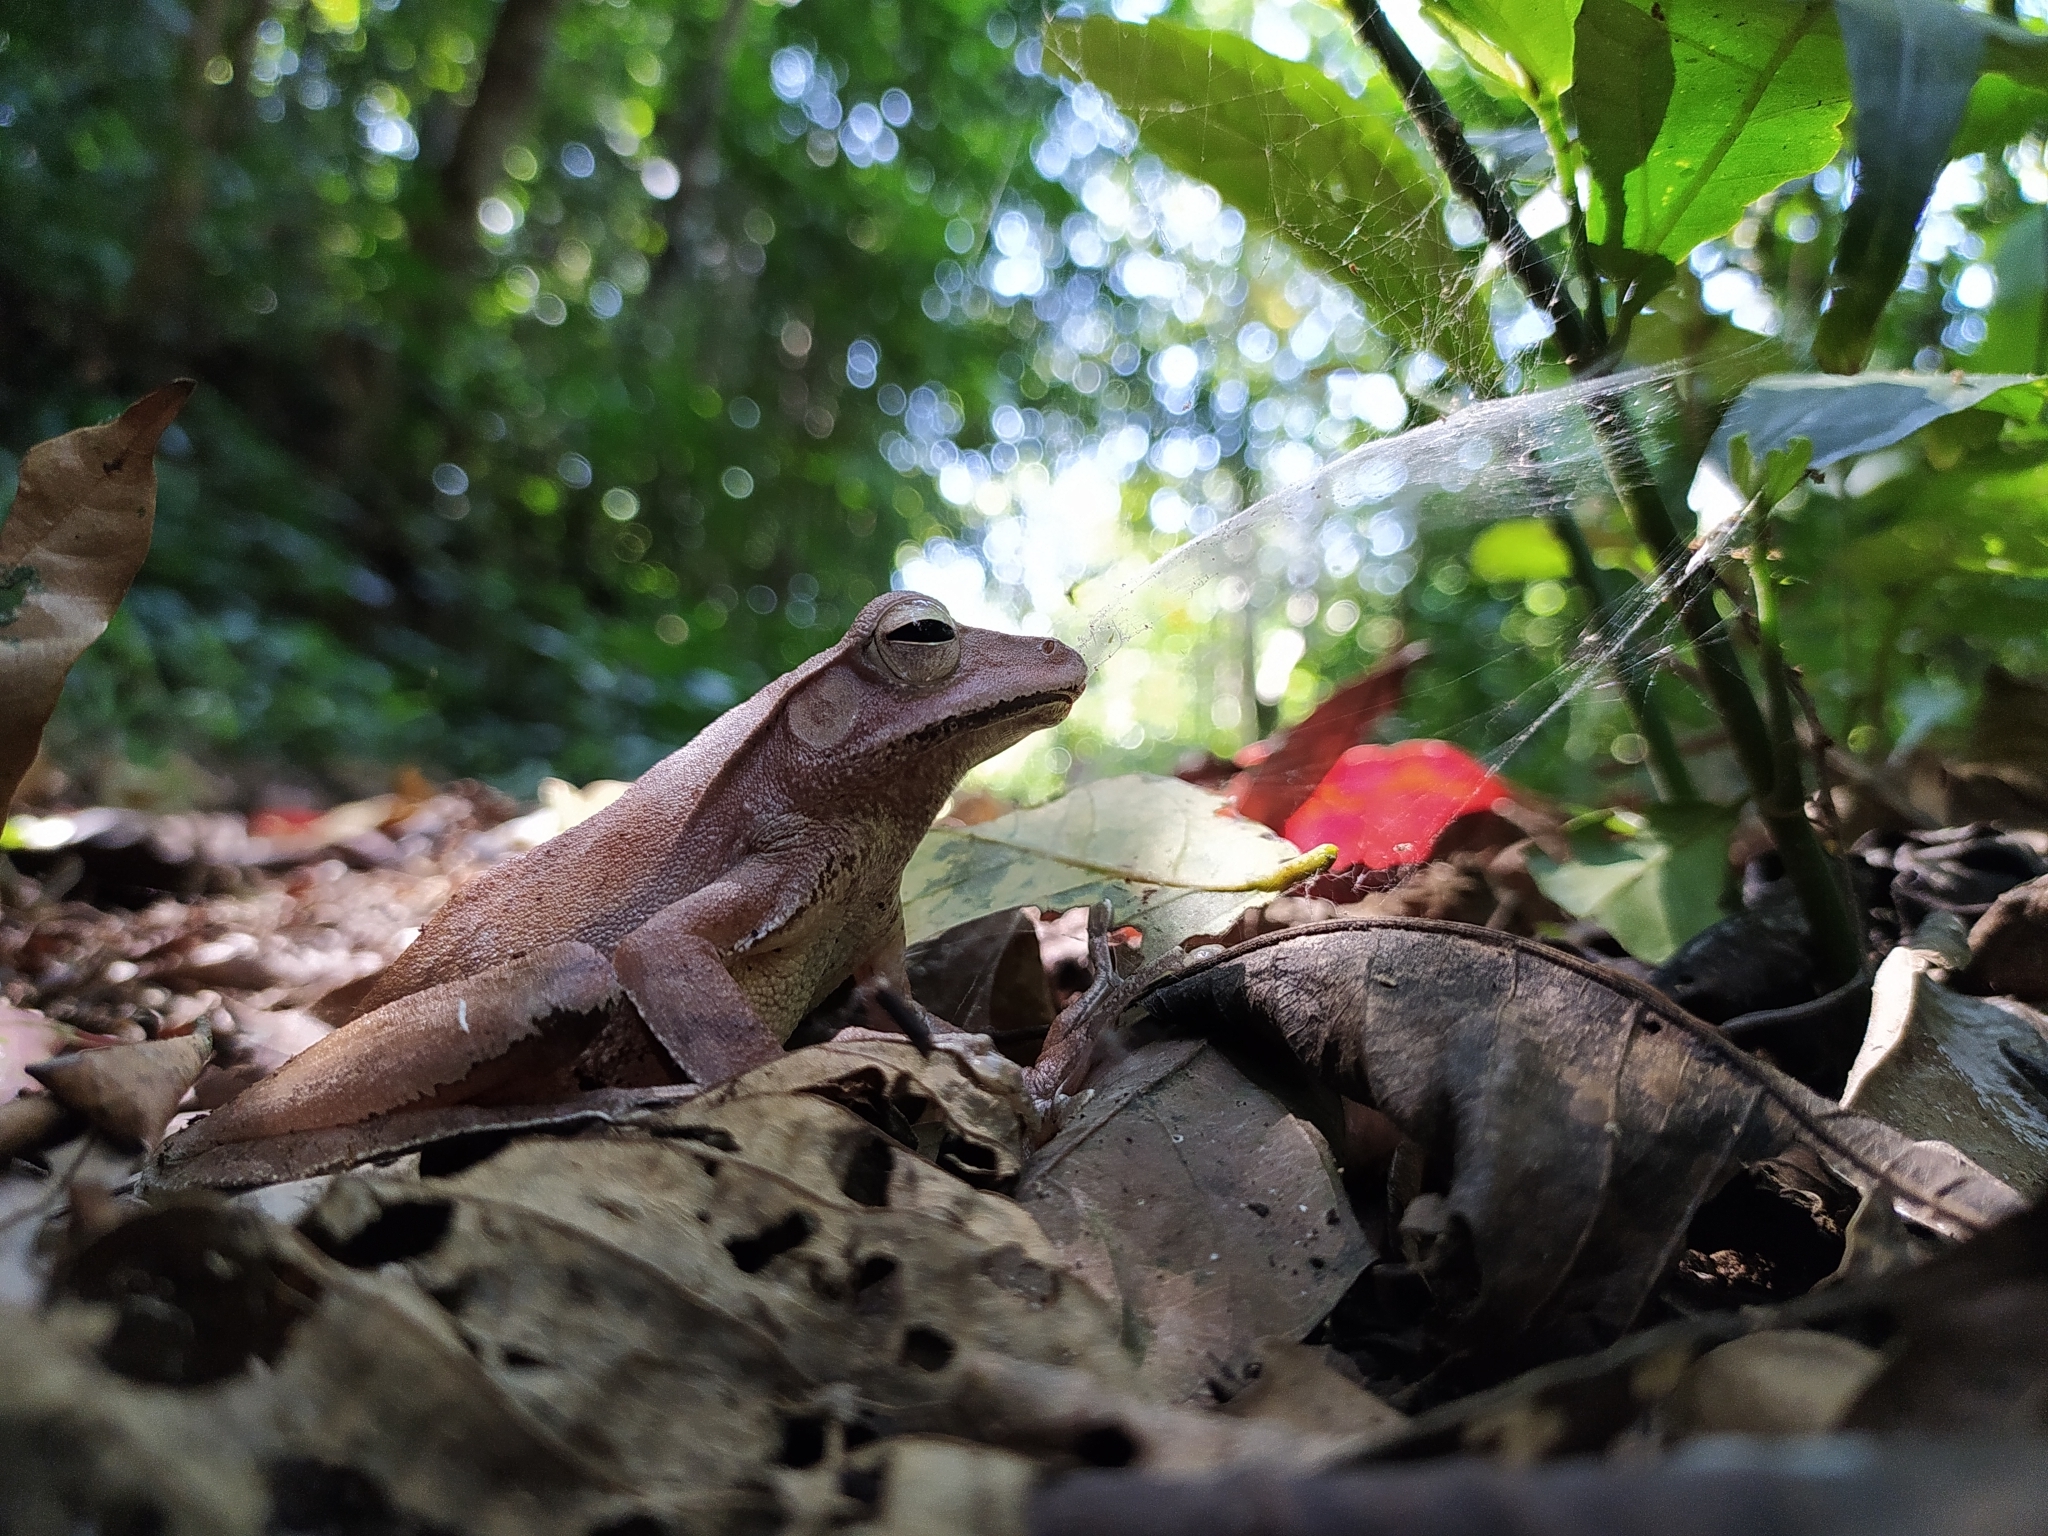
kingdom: Animalia
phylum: Chordata
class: Amphibia
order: Anura
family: Rhacophoridae
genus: Polypedates
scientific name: Polypedates pseudocruciger
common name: False hour-glass tree frog
